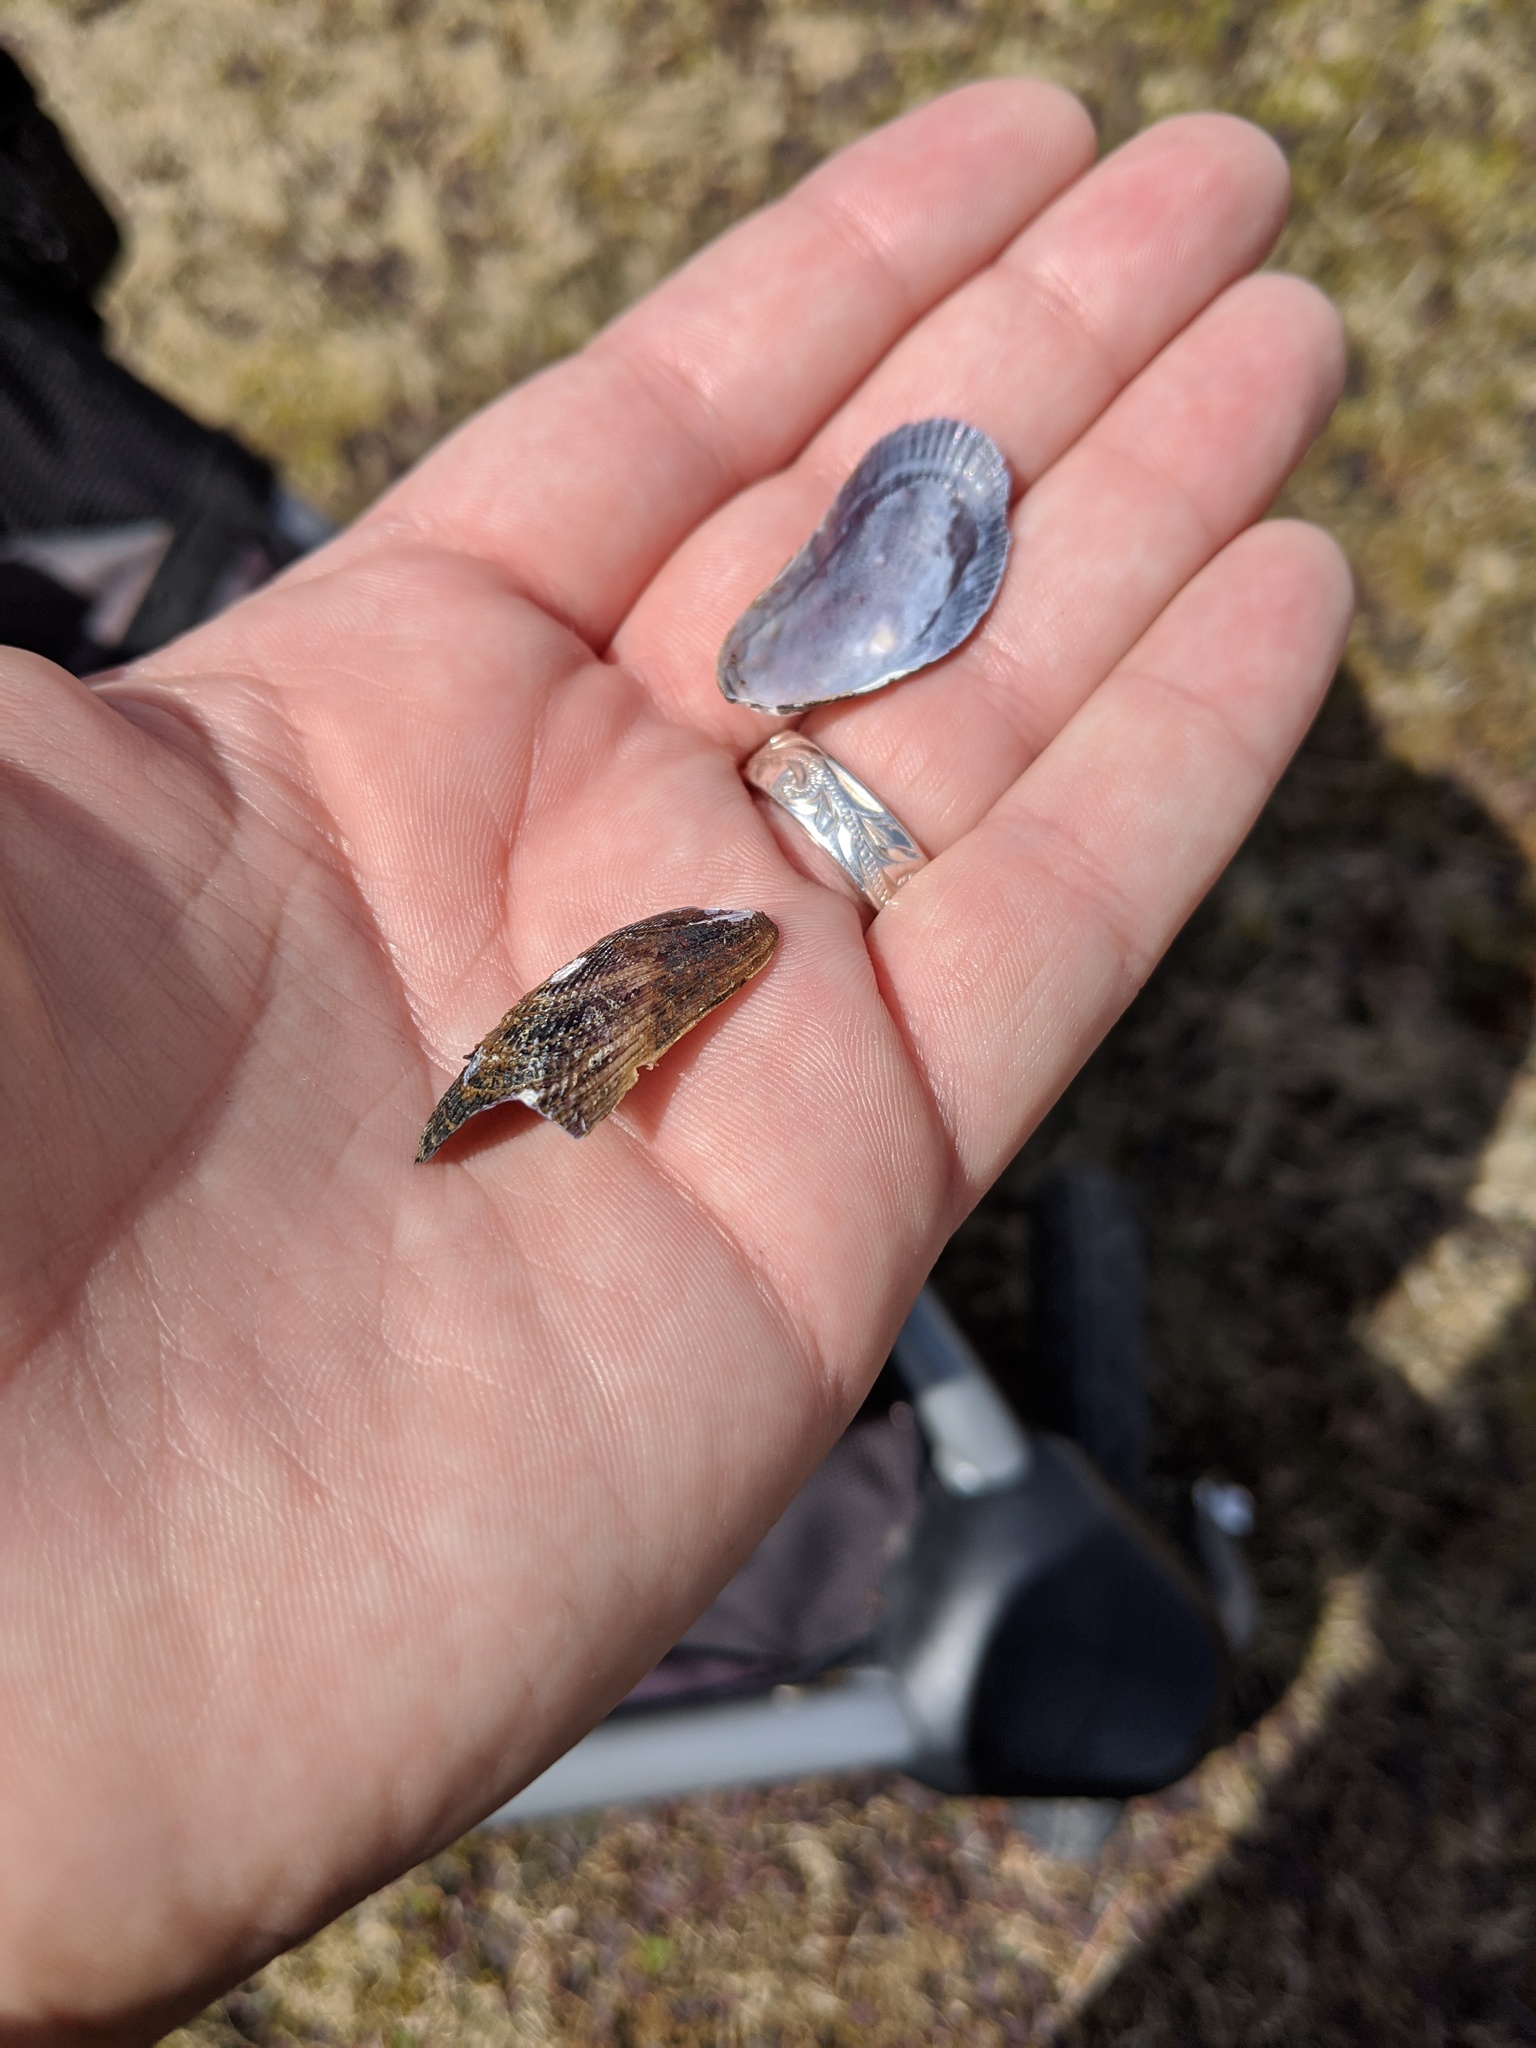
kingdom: Animalia
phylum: Mollusca
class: Bivalvia
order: Mytilida
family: Mytilidae
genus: Geukensia
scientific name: Geukensia demissa
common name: Ribbed mussel
